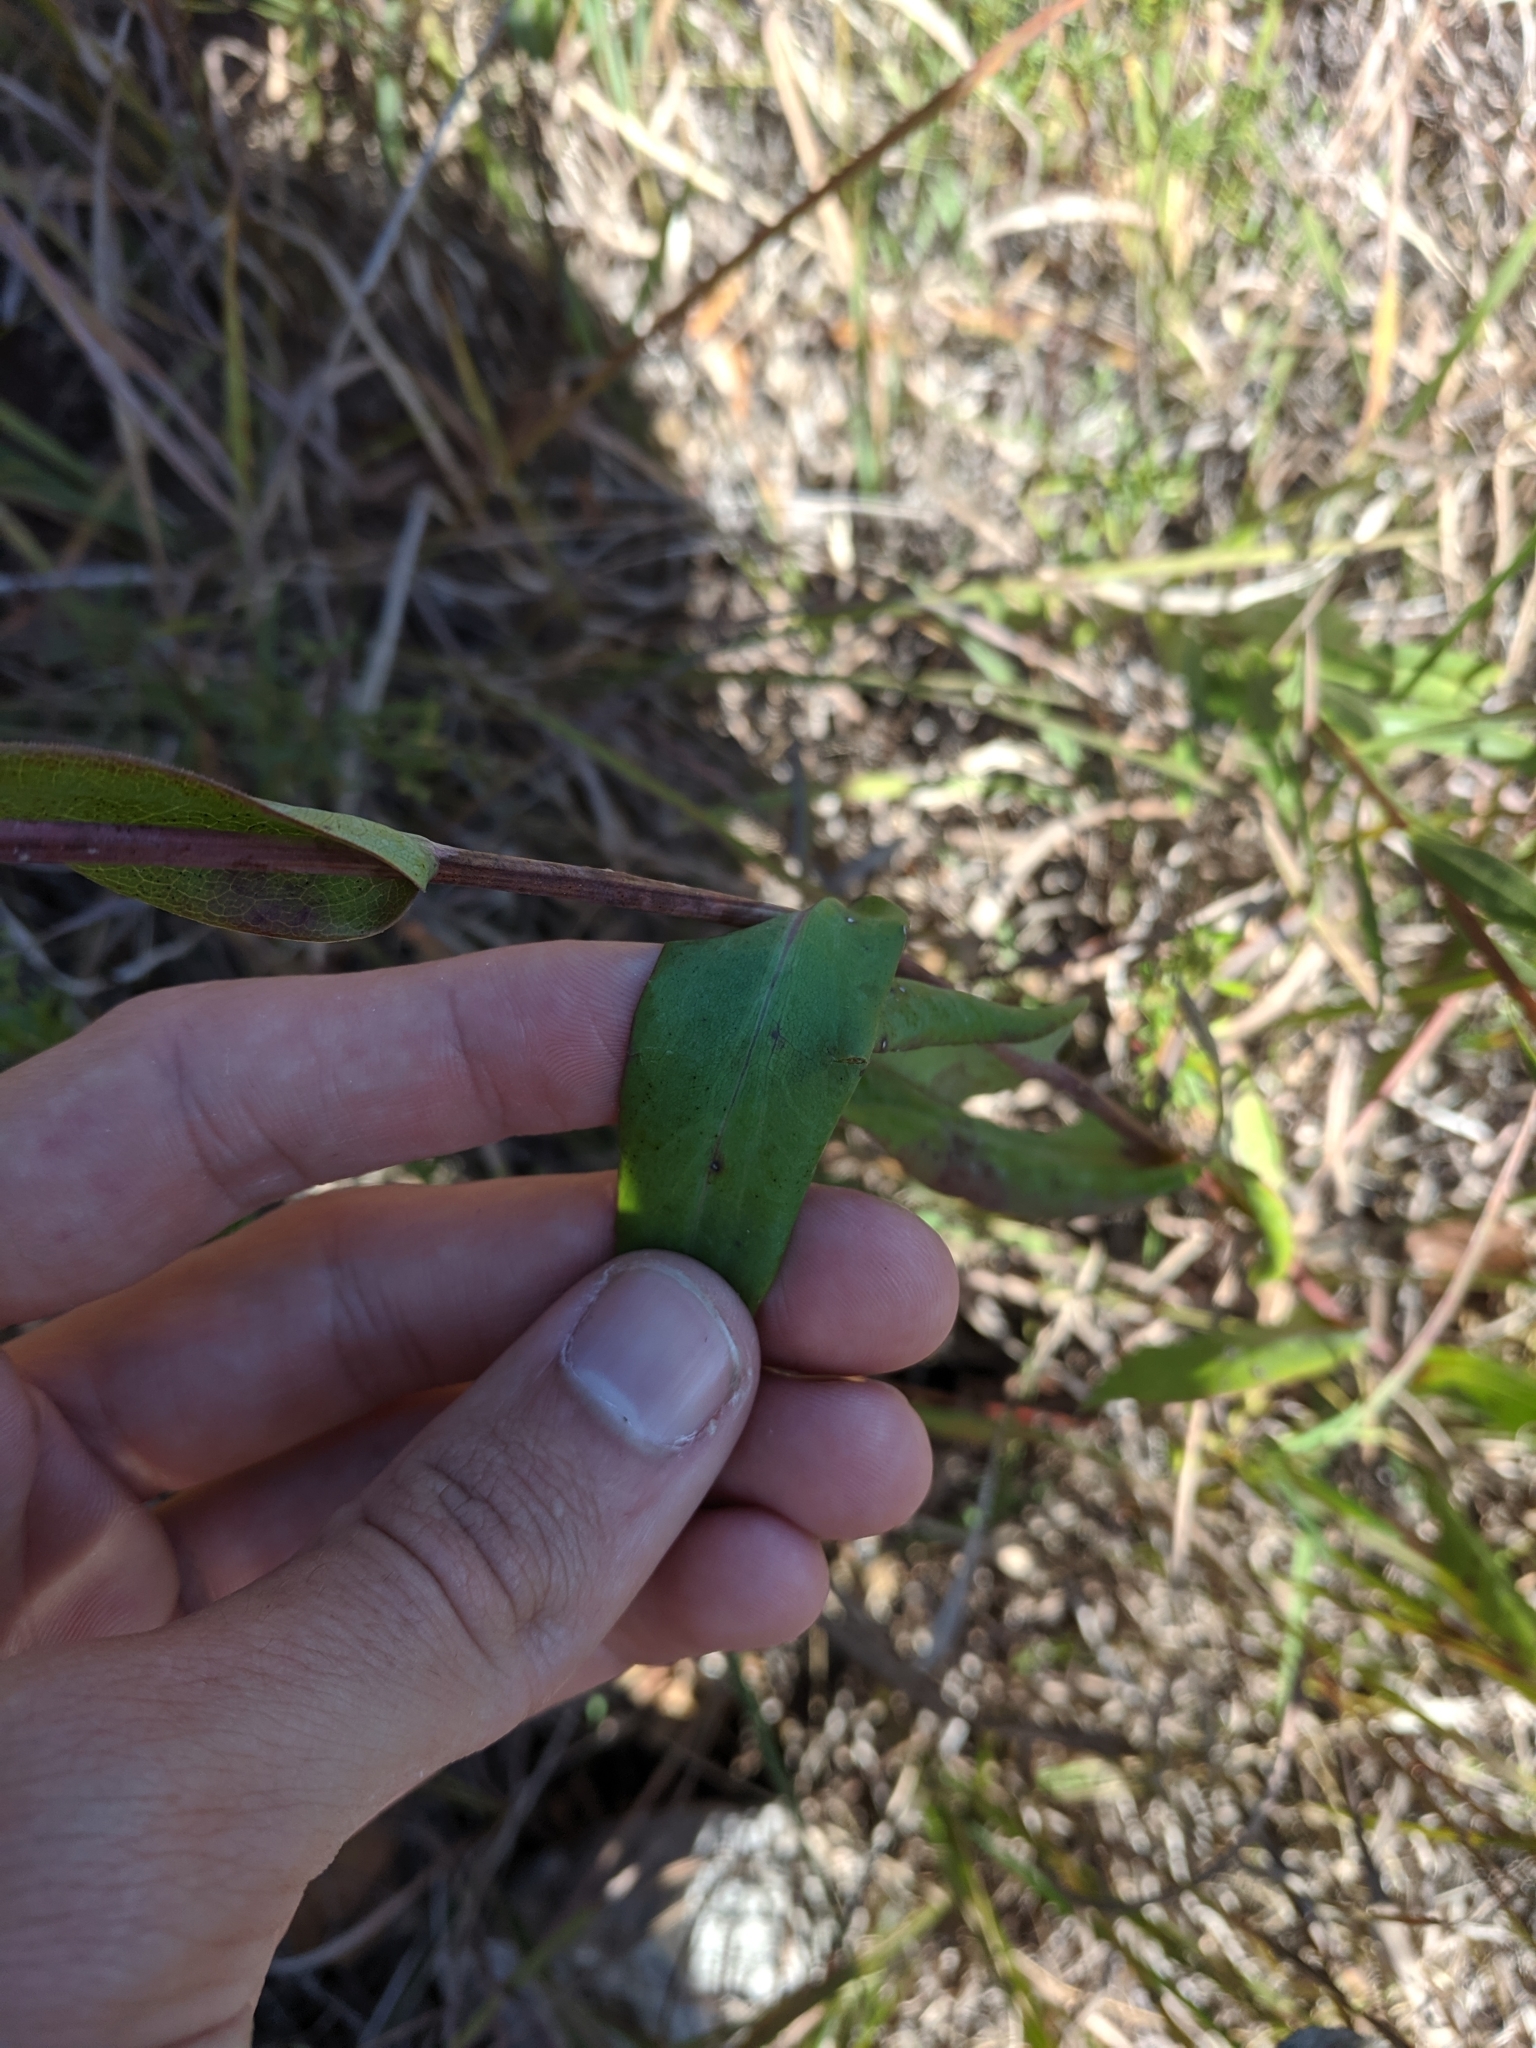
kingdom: Plantae
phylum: Tracheophyta
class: Magnoliopsida
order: Asterales
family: Asteraceae
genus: Symphyotrichum
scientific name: Symphyotrichum laeve
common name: Glaucous aster
